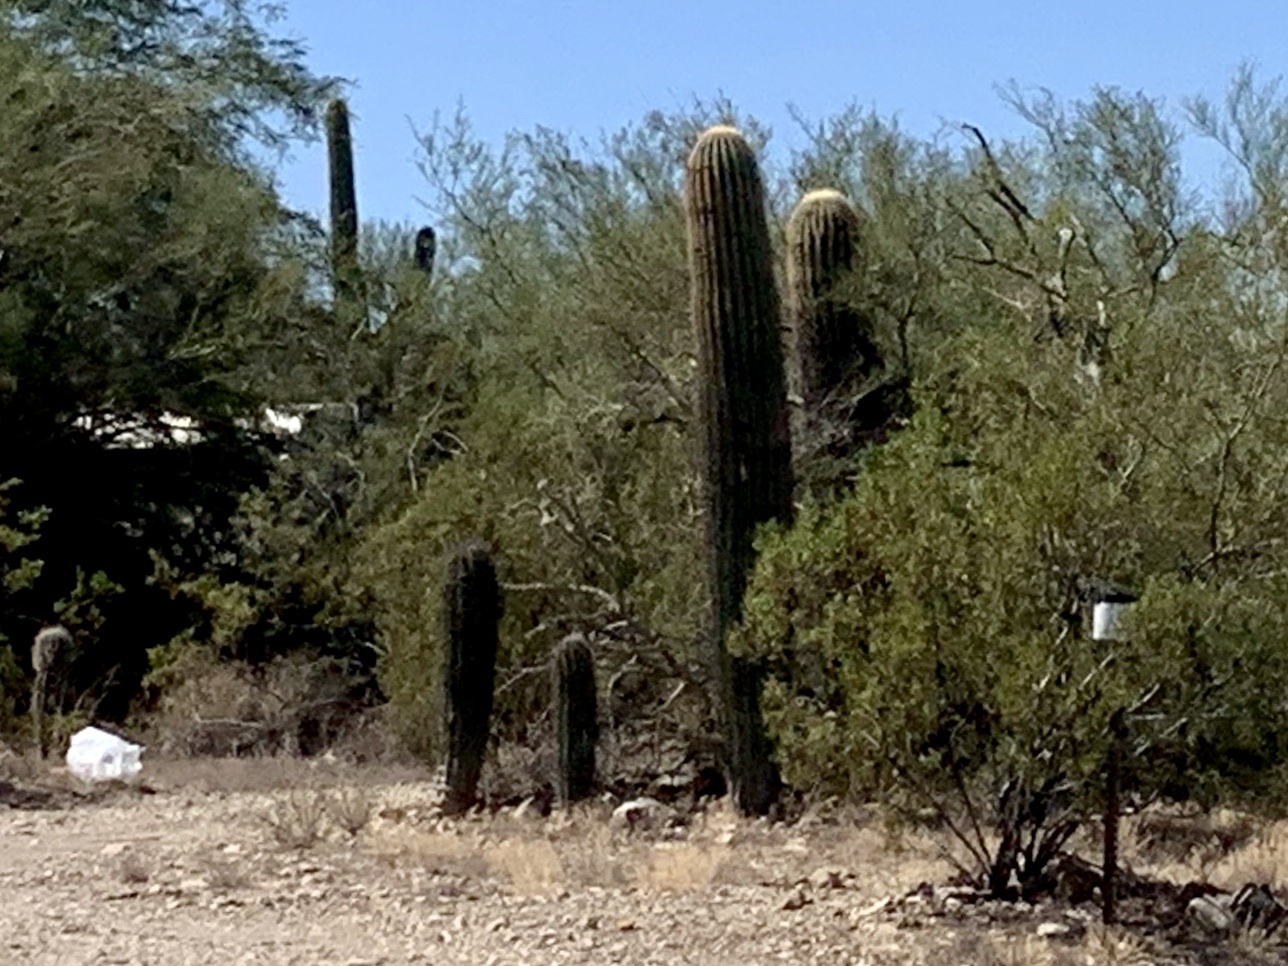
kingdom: Plantae
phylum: Tracheophyta
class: Magnoliopsida
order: Caryophyllales
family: Cactaceae
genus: Carnegiea
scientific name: Carnegiea gigantea
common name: Saguaro
